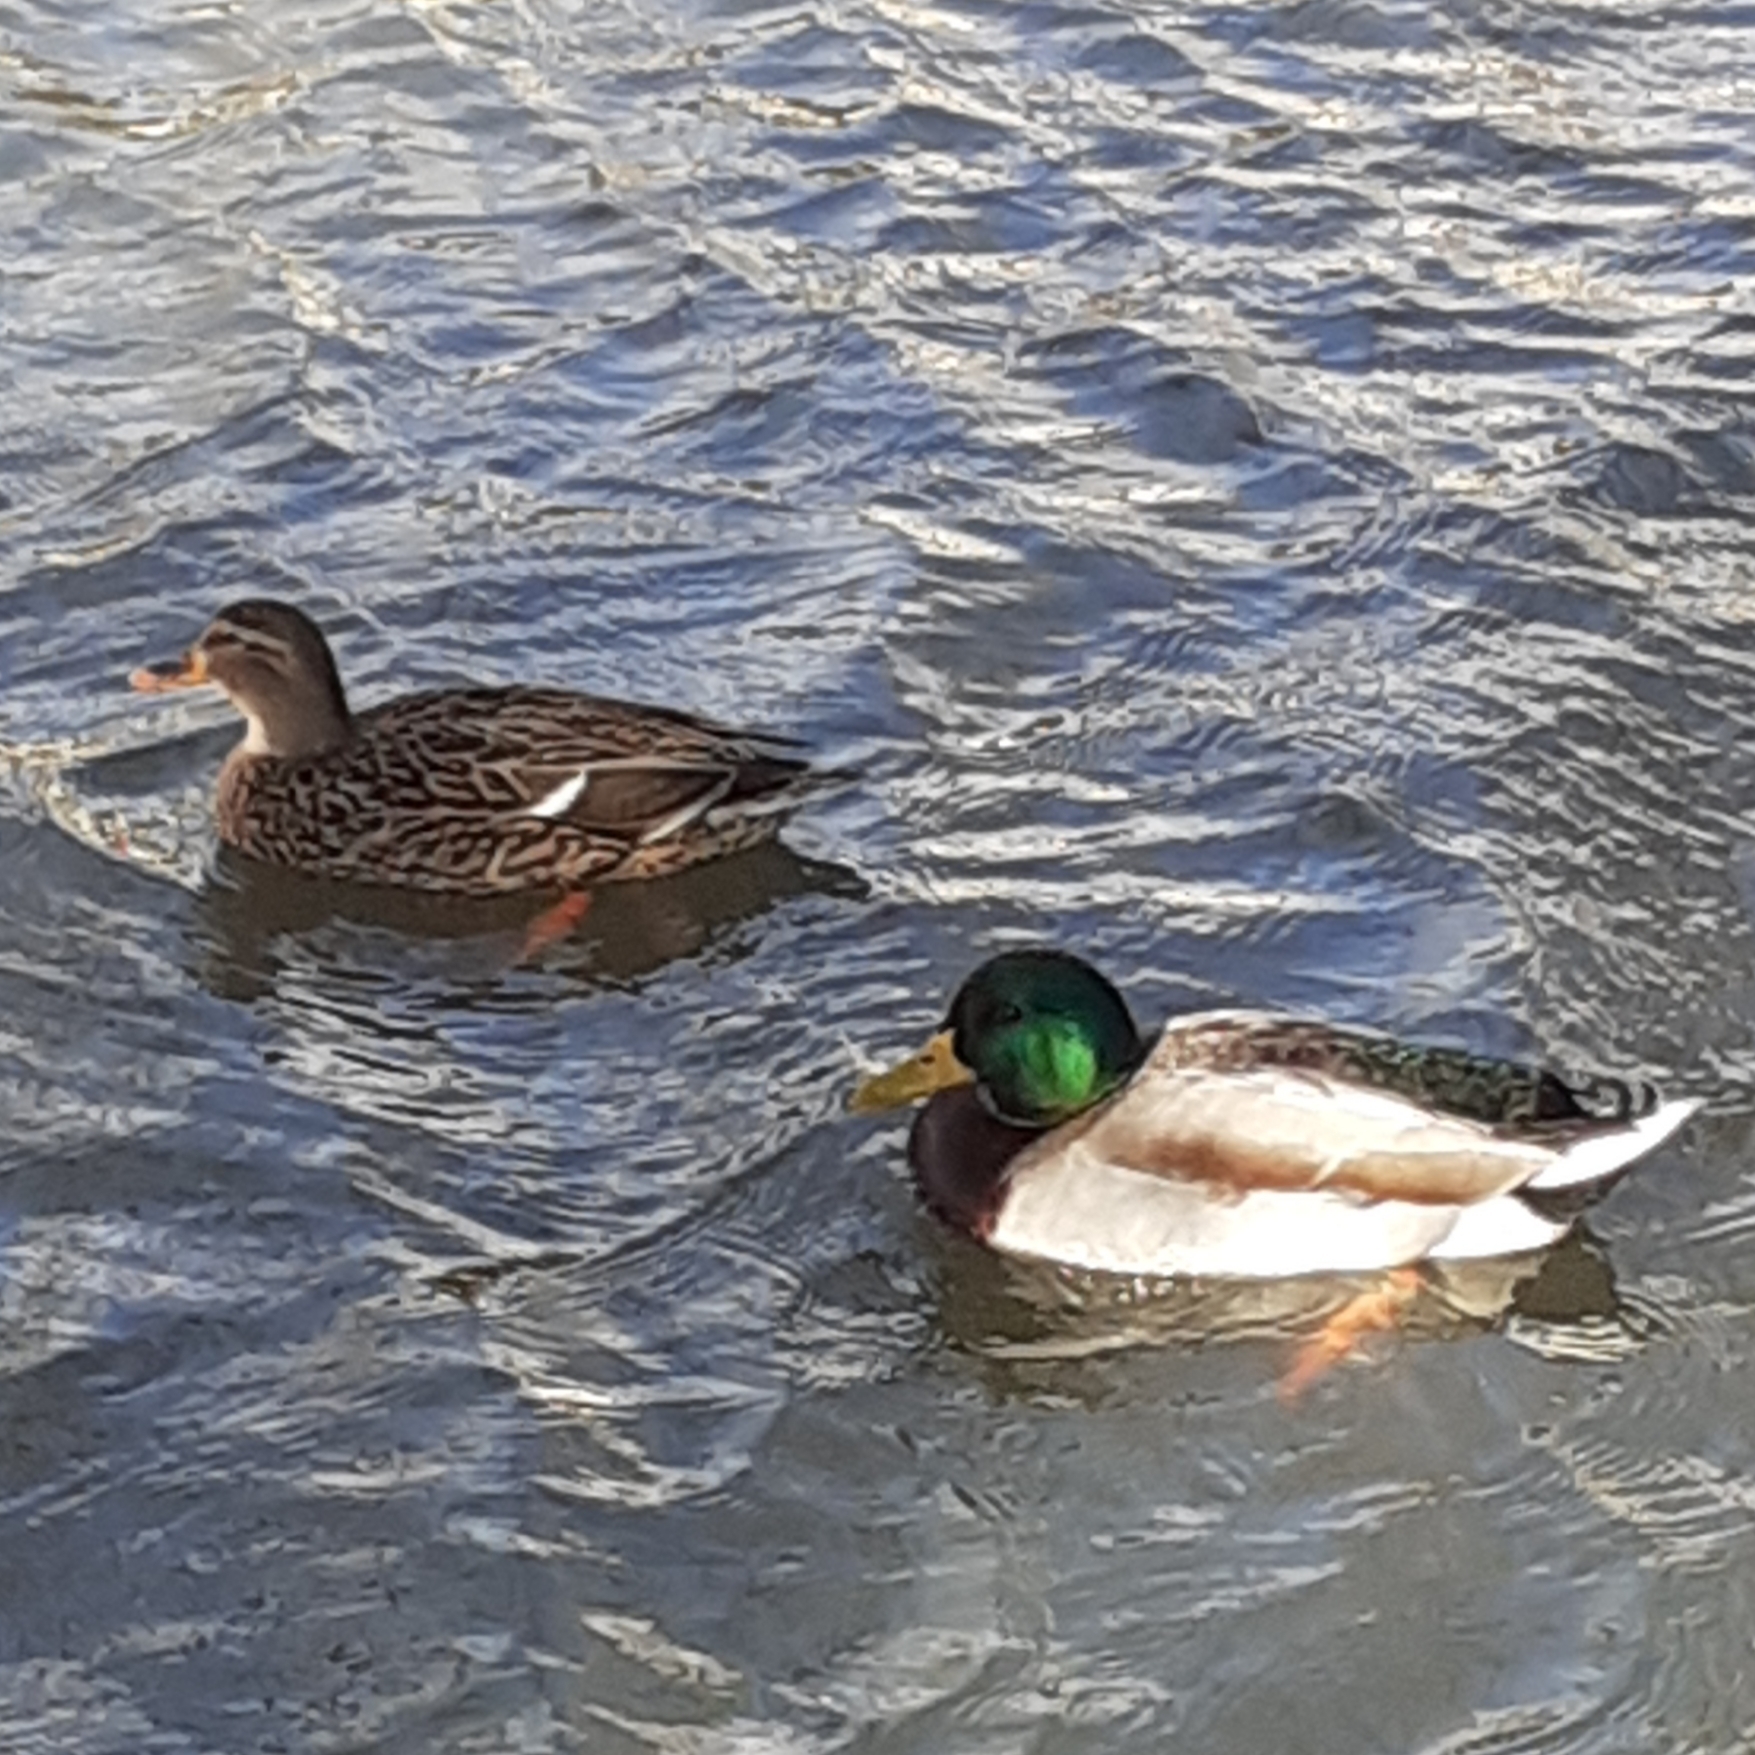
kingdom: Animalia
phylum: Chordata
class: Aves
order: Anseriformes
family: Anatidae
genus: Anas
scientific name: Anas platyrhynchos
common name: Mallard
